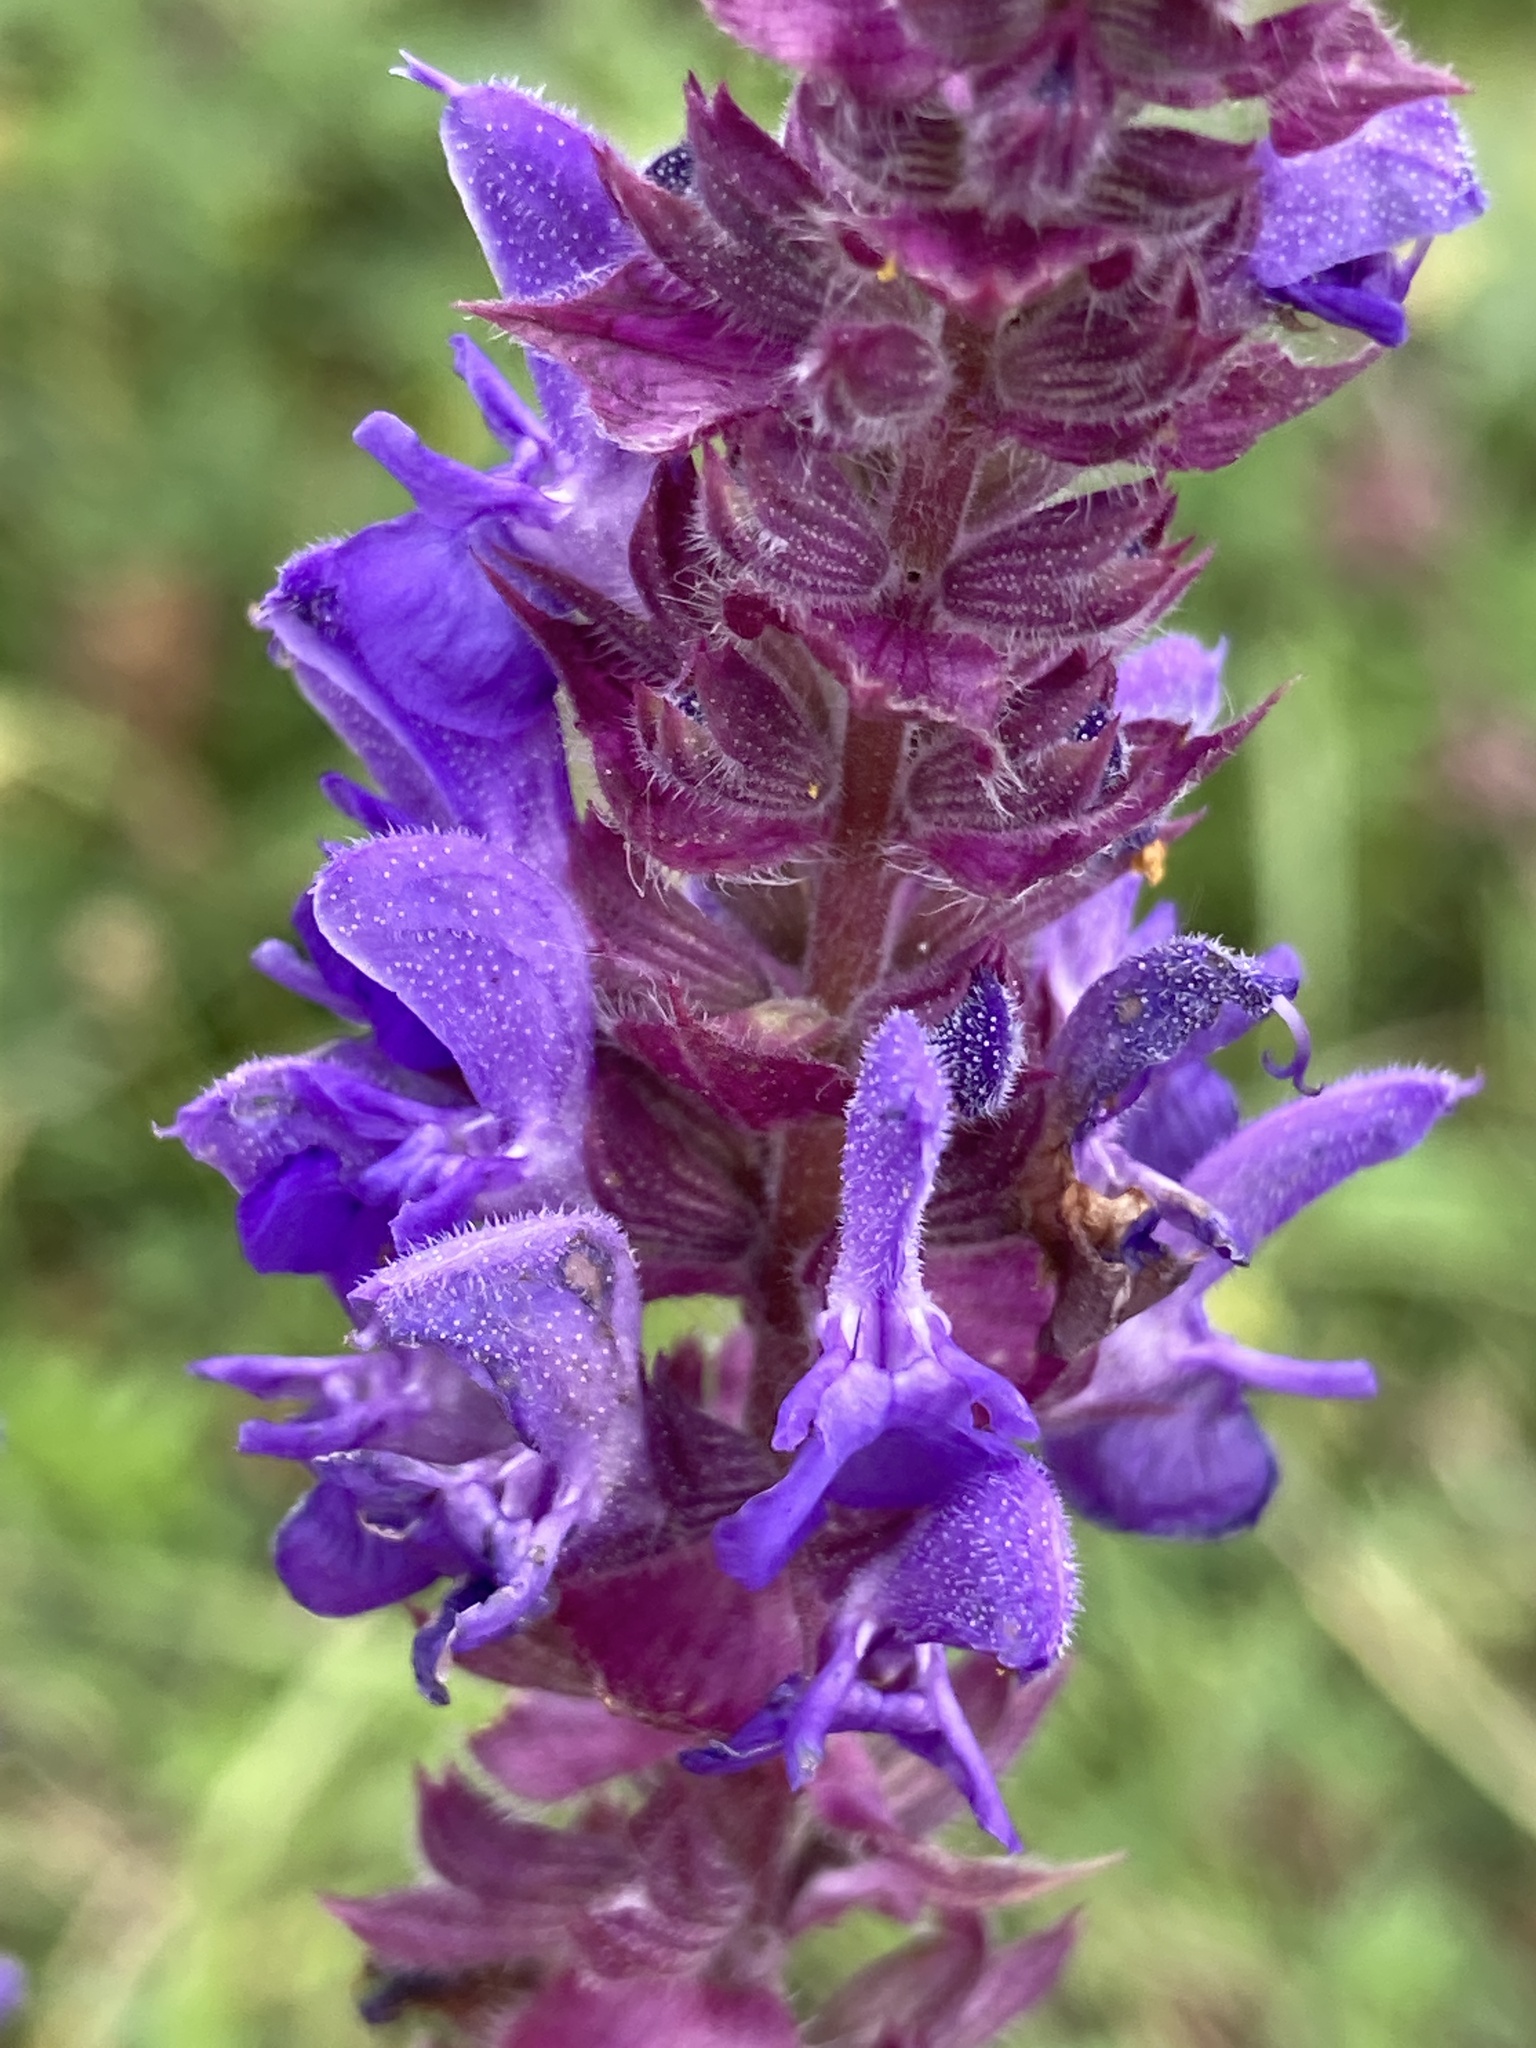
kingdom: Plantae
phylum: Tracheophyta
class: Magnoliopsida
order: Lamiales
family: Lamiaceae
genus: Salvia
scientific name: Salvia nemorosa
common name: Balkan clary
